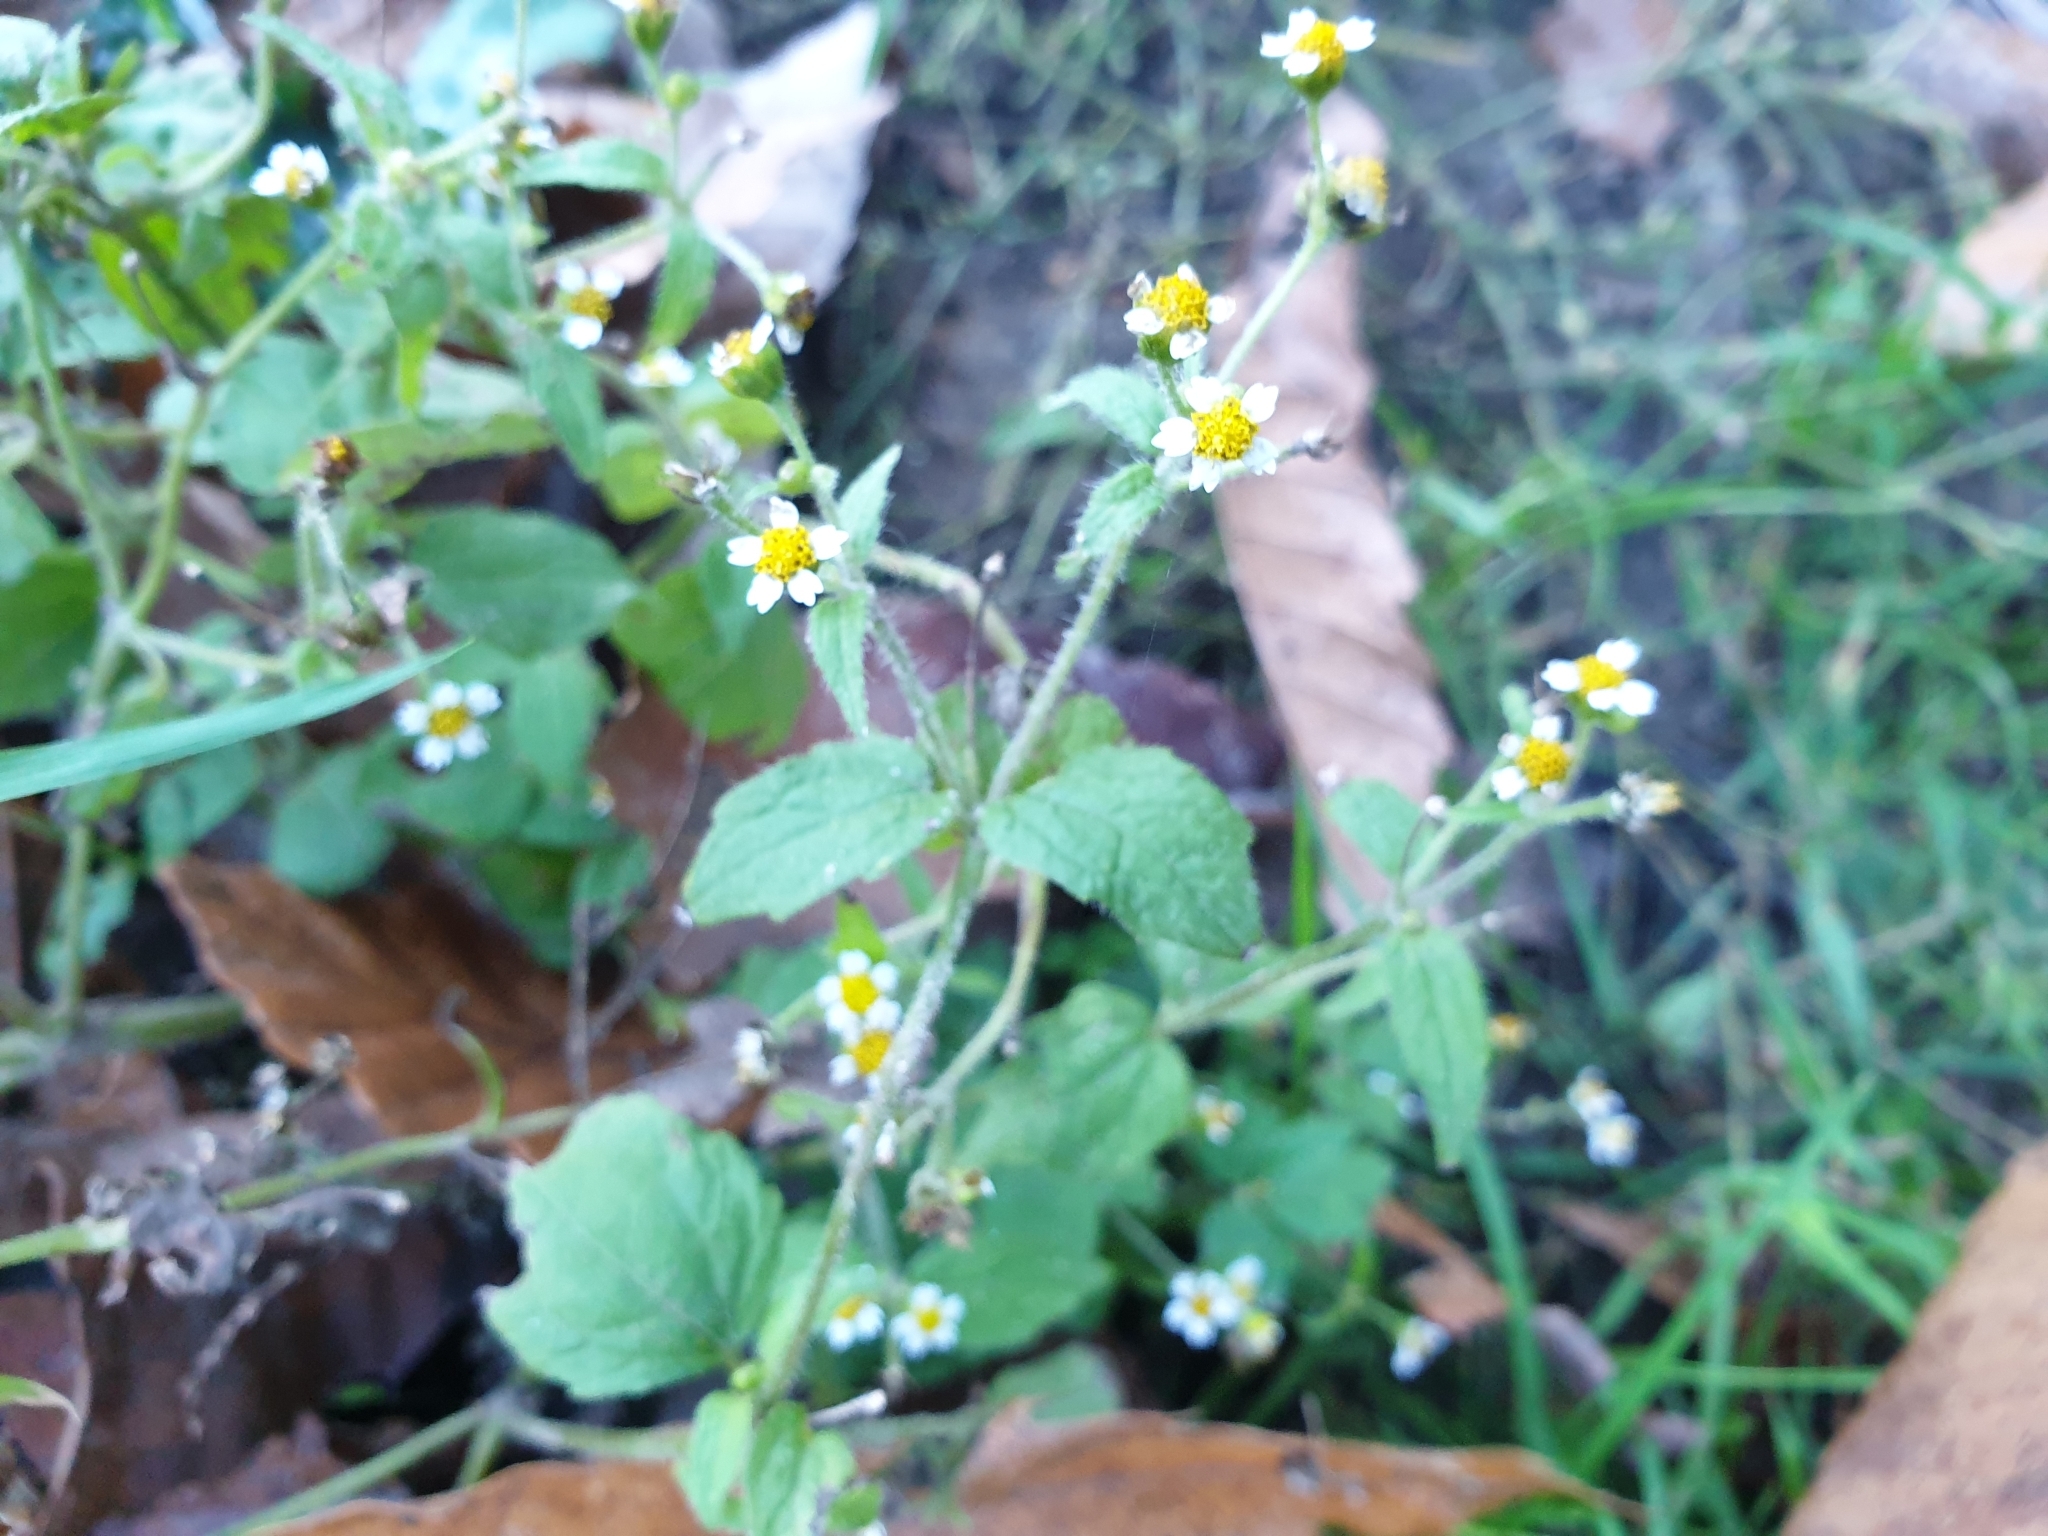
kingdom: Plantae
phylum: Tracheophyta
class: Magnoliopsida
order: Asterales
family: Asteraceae
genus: Galinsoga
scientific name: Galinsoga quadriradiata
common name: Shaggy soldier
